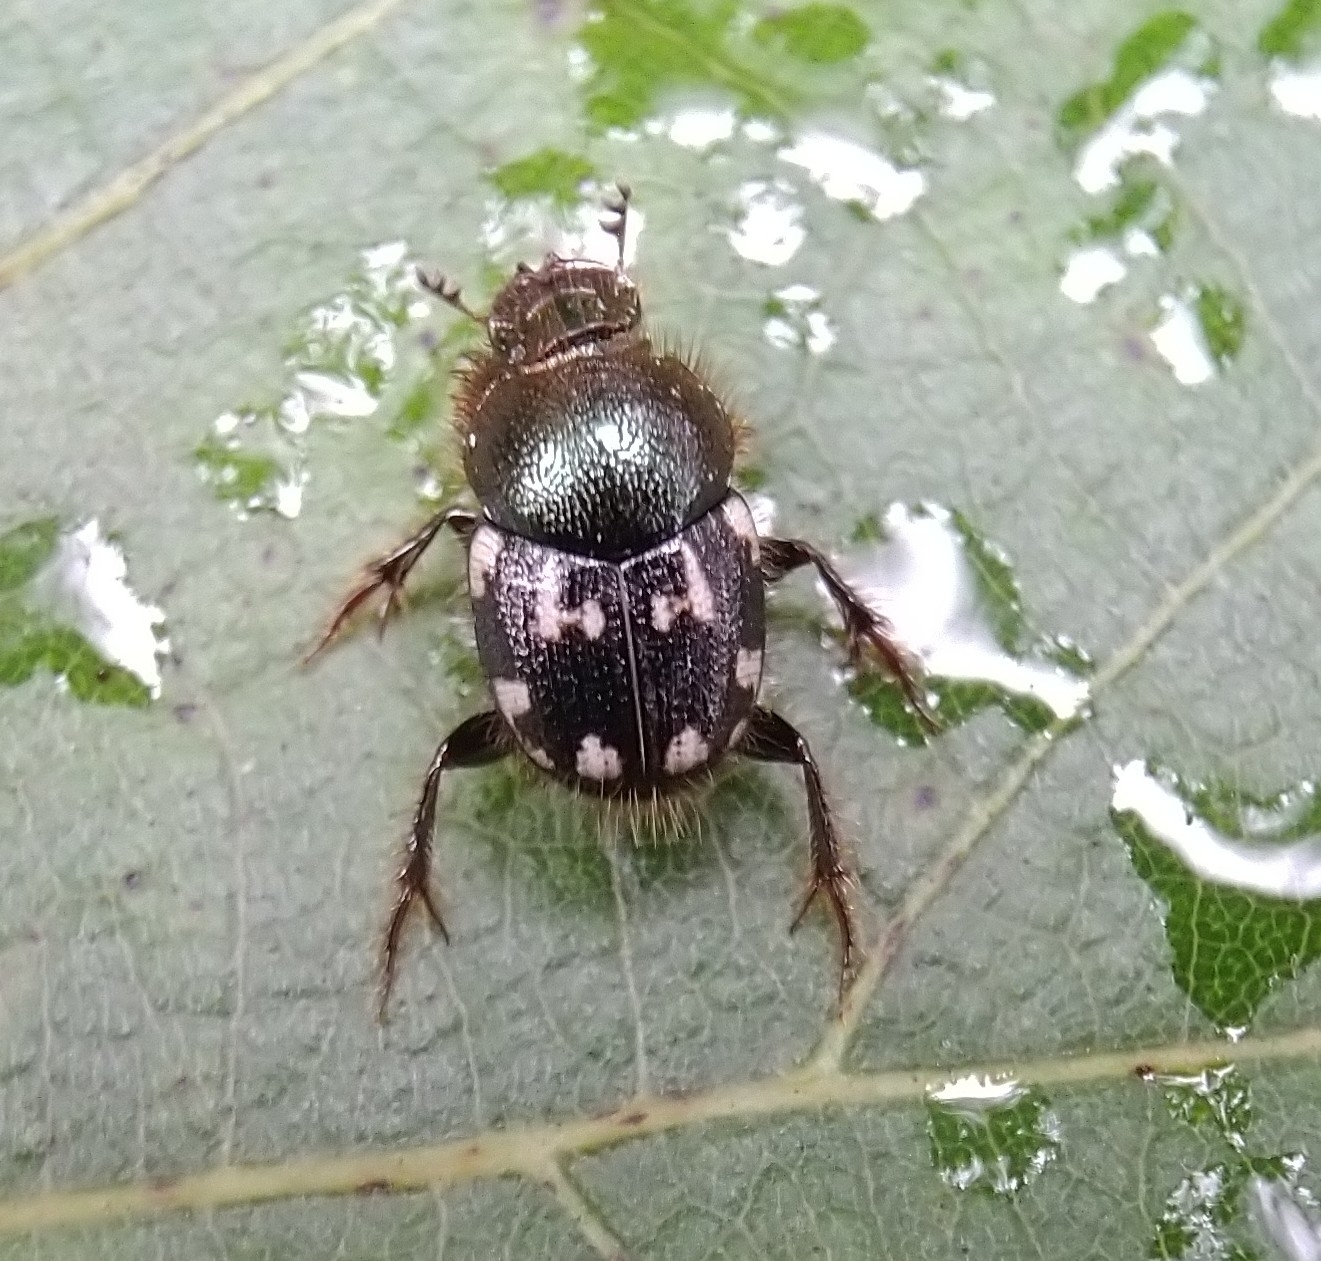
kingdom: Animalia
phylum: Arthropoda
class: Insecta
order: Coleoptera
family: Scarabaeidae
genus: Onthophagus
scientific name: Onthophagus orissanus
